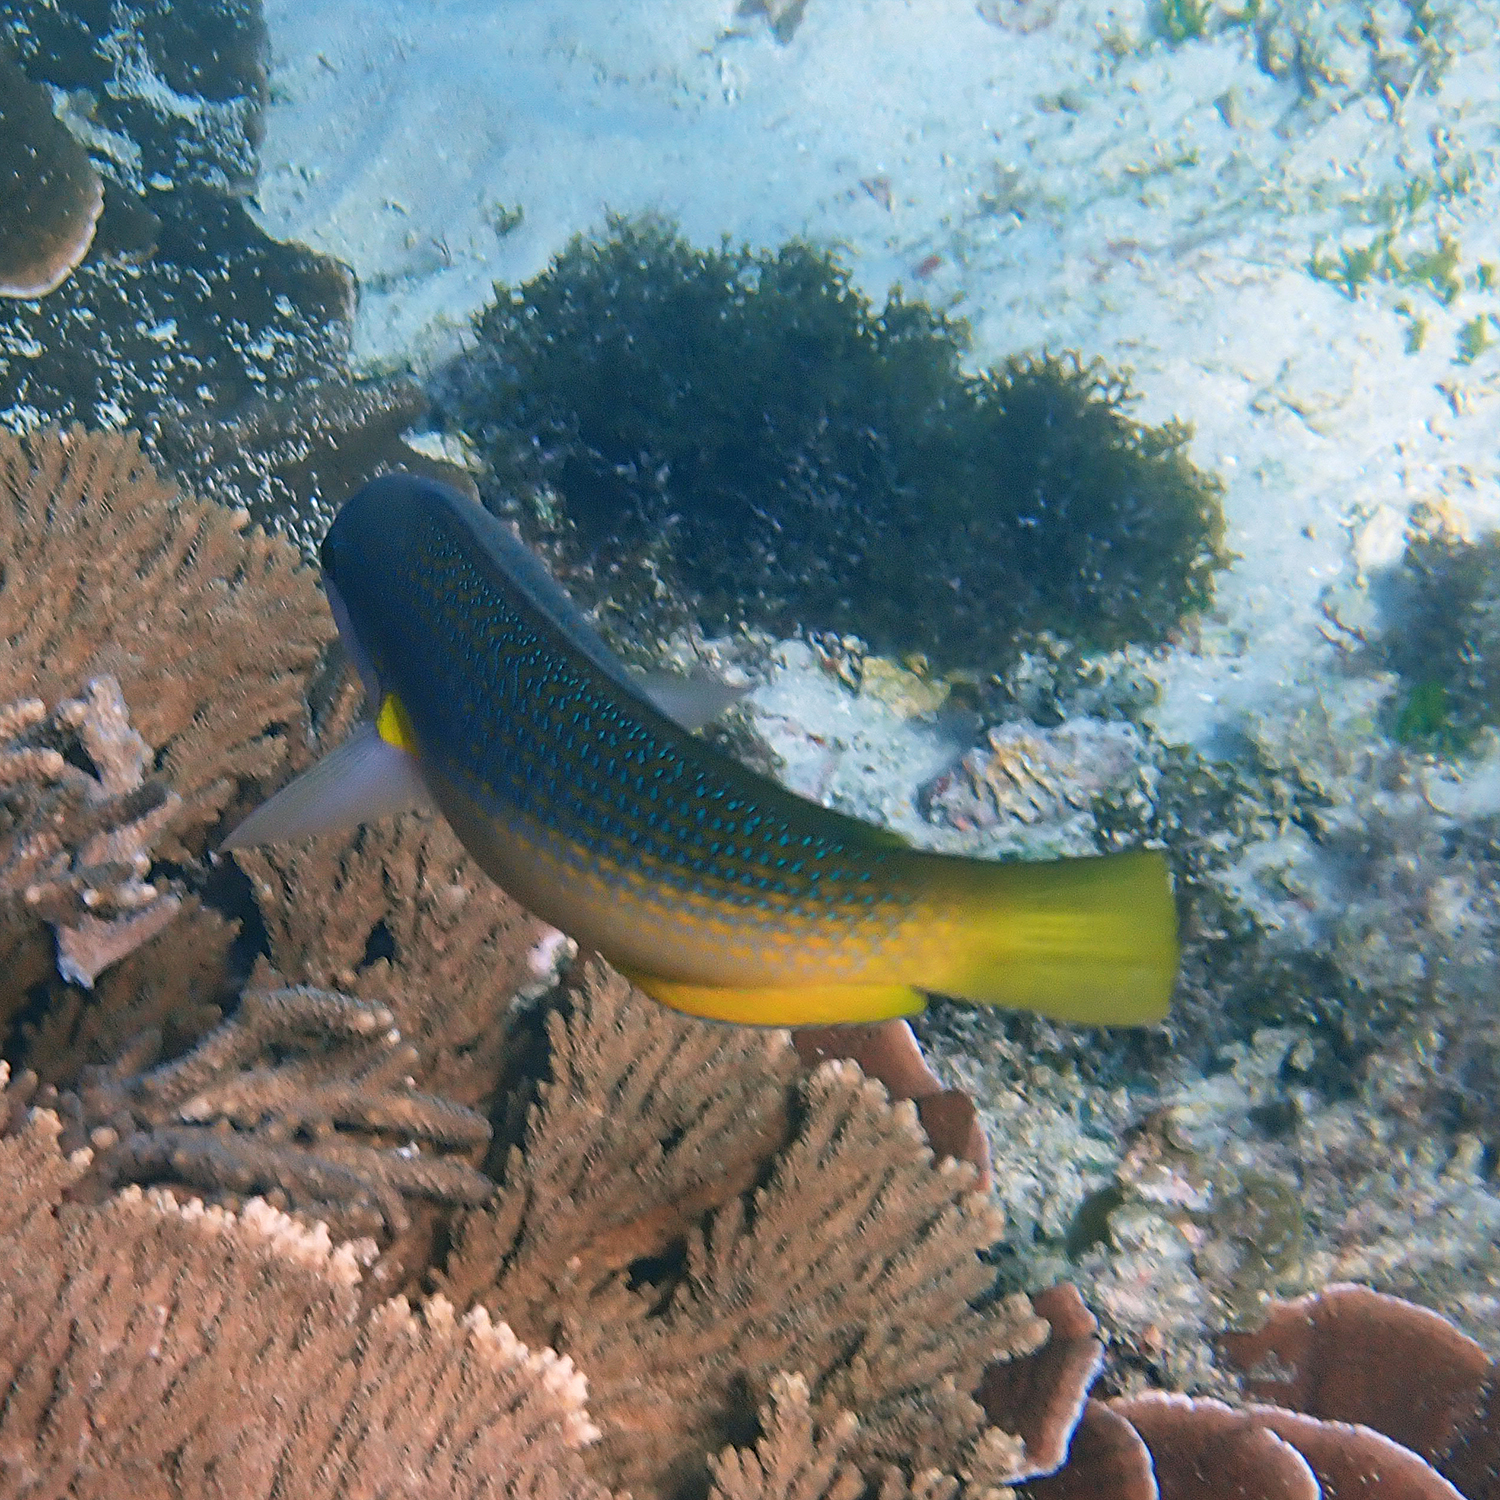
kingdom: Animalia
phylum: Chordata
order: Perciformes
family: Labridae
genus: Anampses
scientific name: Anampses elegans
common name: Elegant wrasse
